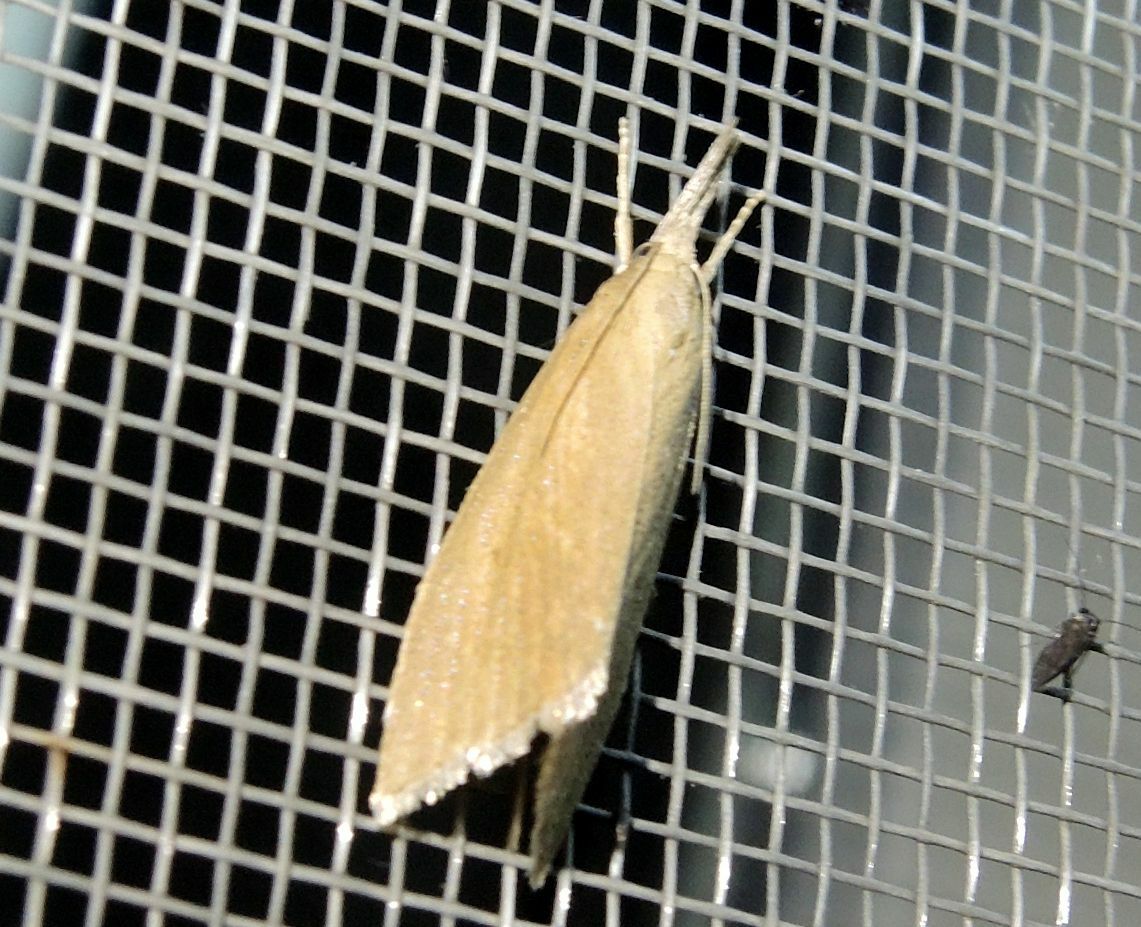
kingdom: Animalia
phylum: Arthropoda
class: Insecta
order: Lepidoptera
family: Crambidae
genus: Chilo
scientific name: Chilo phragmitella
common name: Reed veneer
